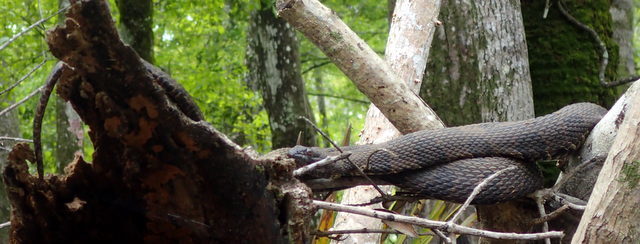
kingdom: Animalia
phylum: Chordata
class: Squamata
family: Colubridae
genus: Nerodia
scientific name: Nerodia taxispilota
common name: Brown water snake
